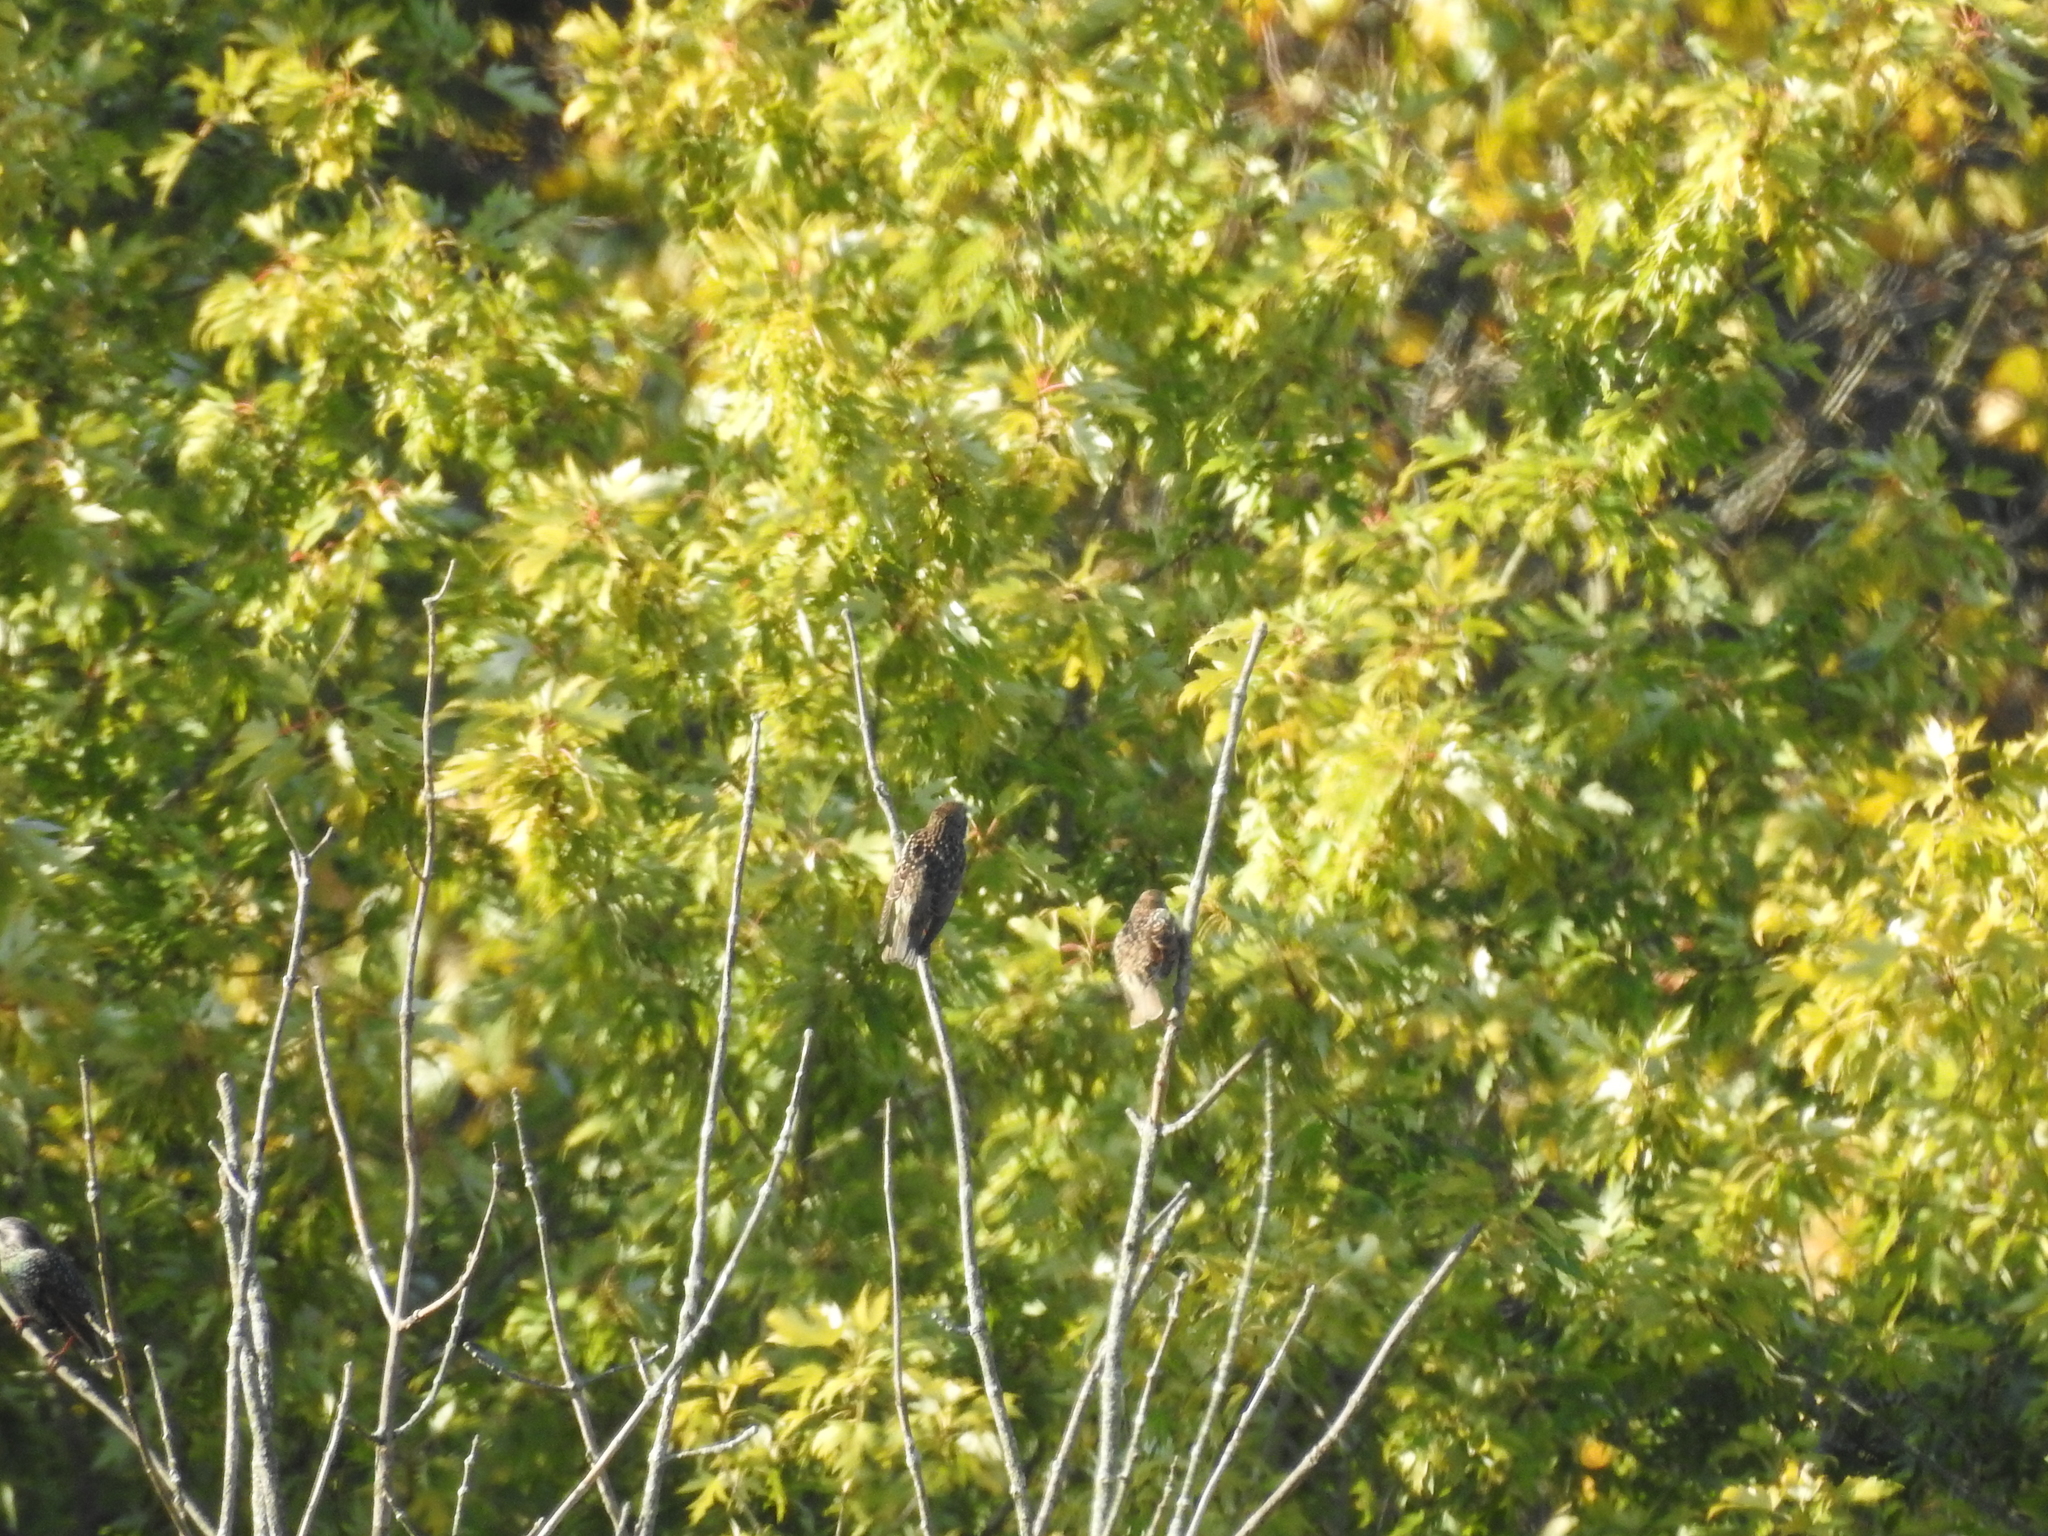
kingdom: Animalia
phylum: Chordata
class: Aves
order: Passeriformes
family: Sturnidae
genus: Sturnus
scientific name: Sturnus vulgaris
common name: Common starling
